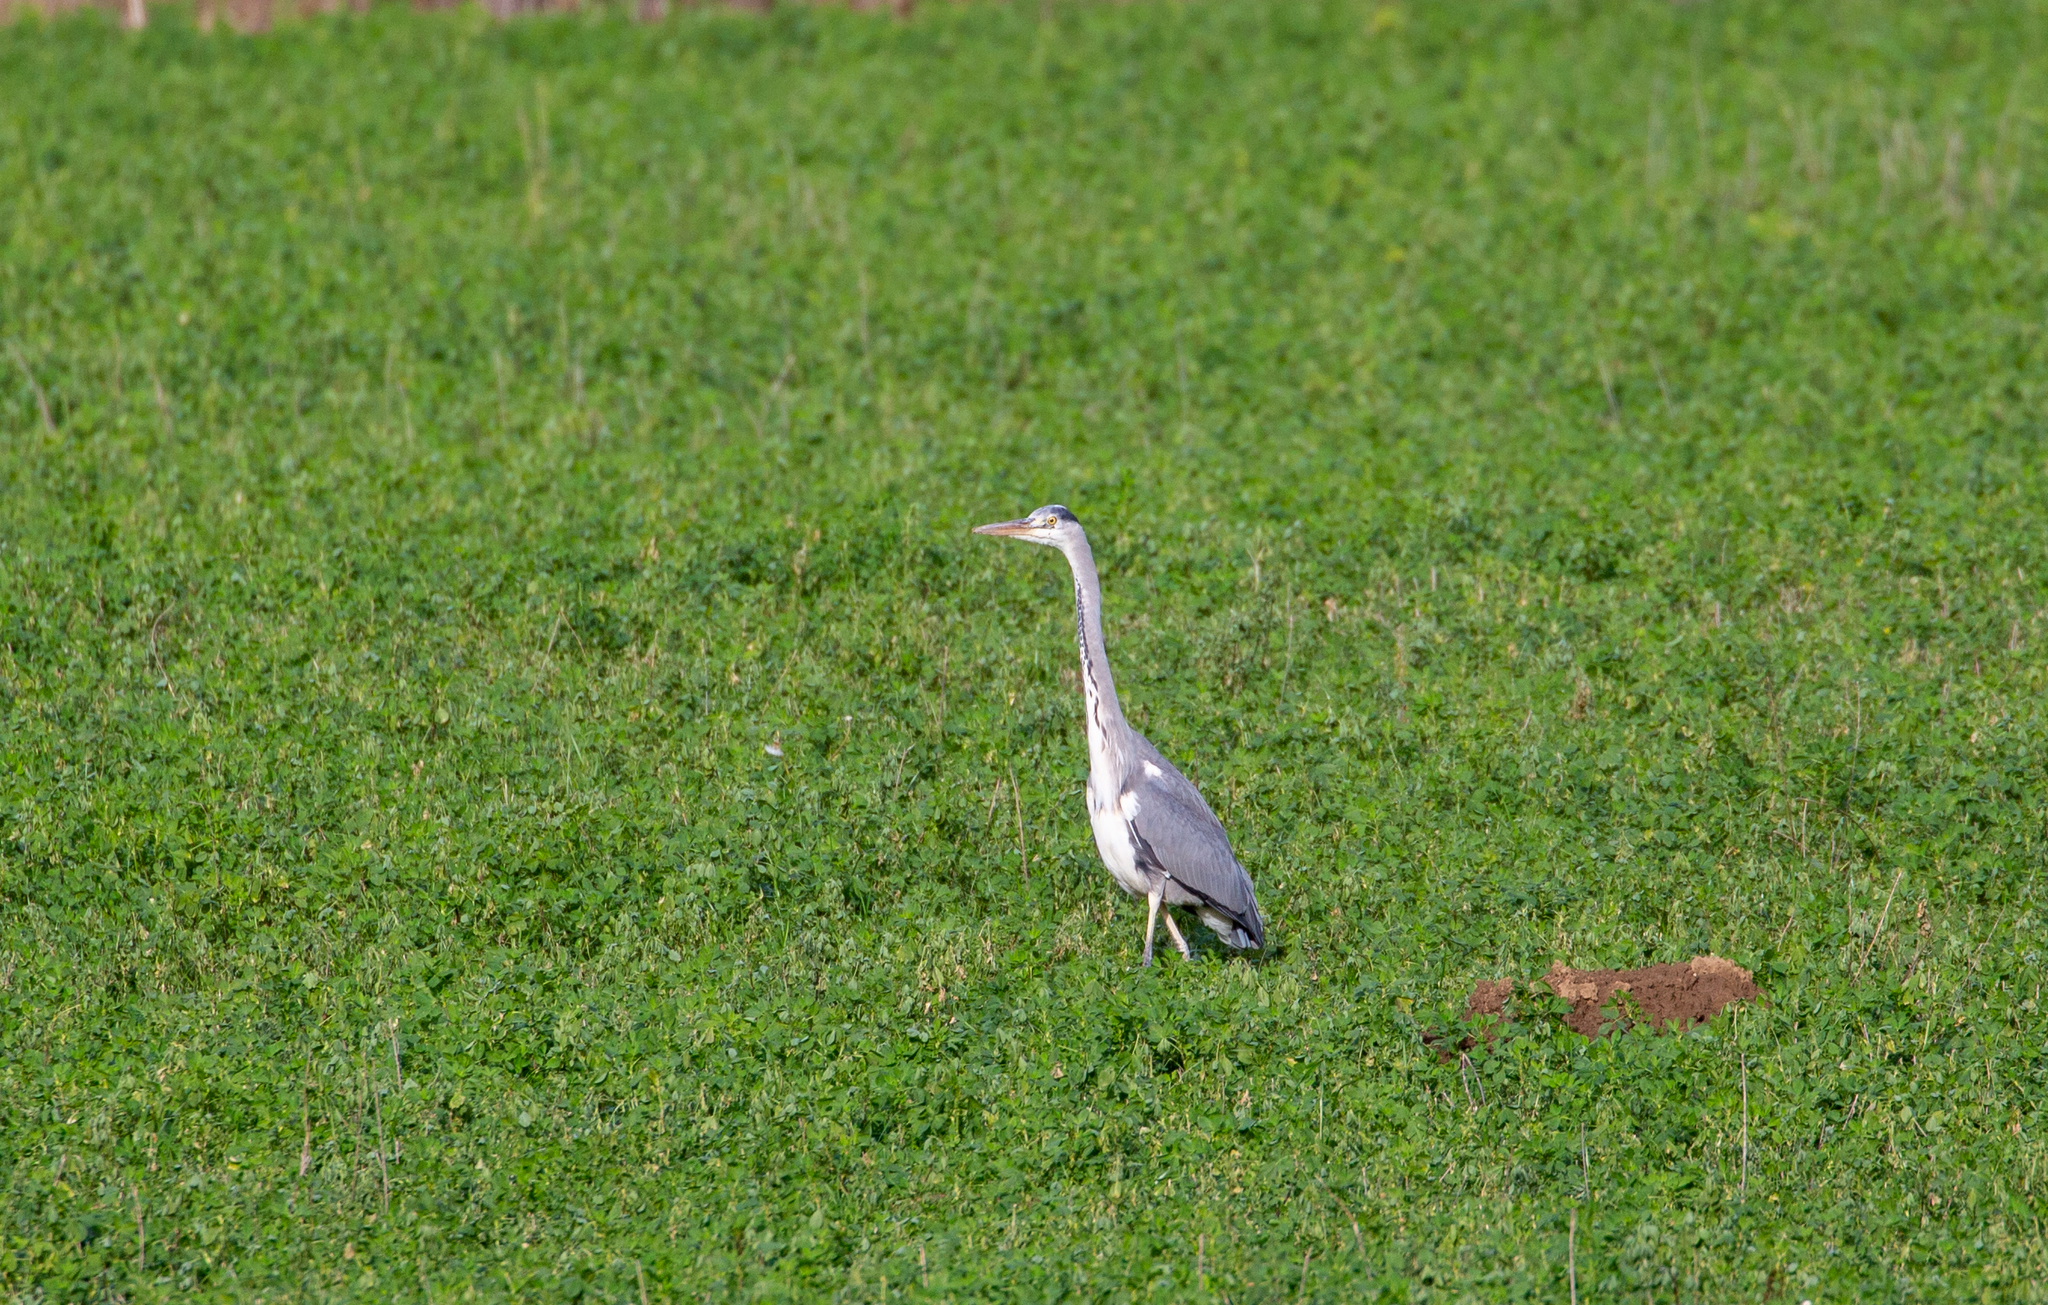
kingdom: Animalia
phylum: Chordata
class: Aves
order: Pelecaniformes
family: Ardeidae
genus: Ardea
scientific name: Ardea cinerea
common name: Grey heron
